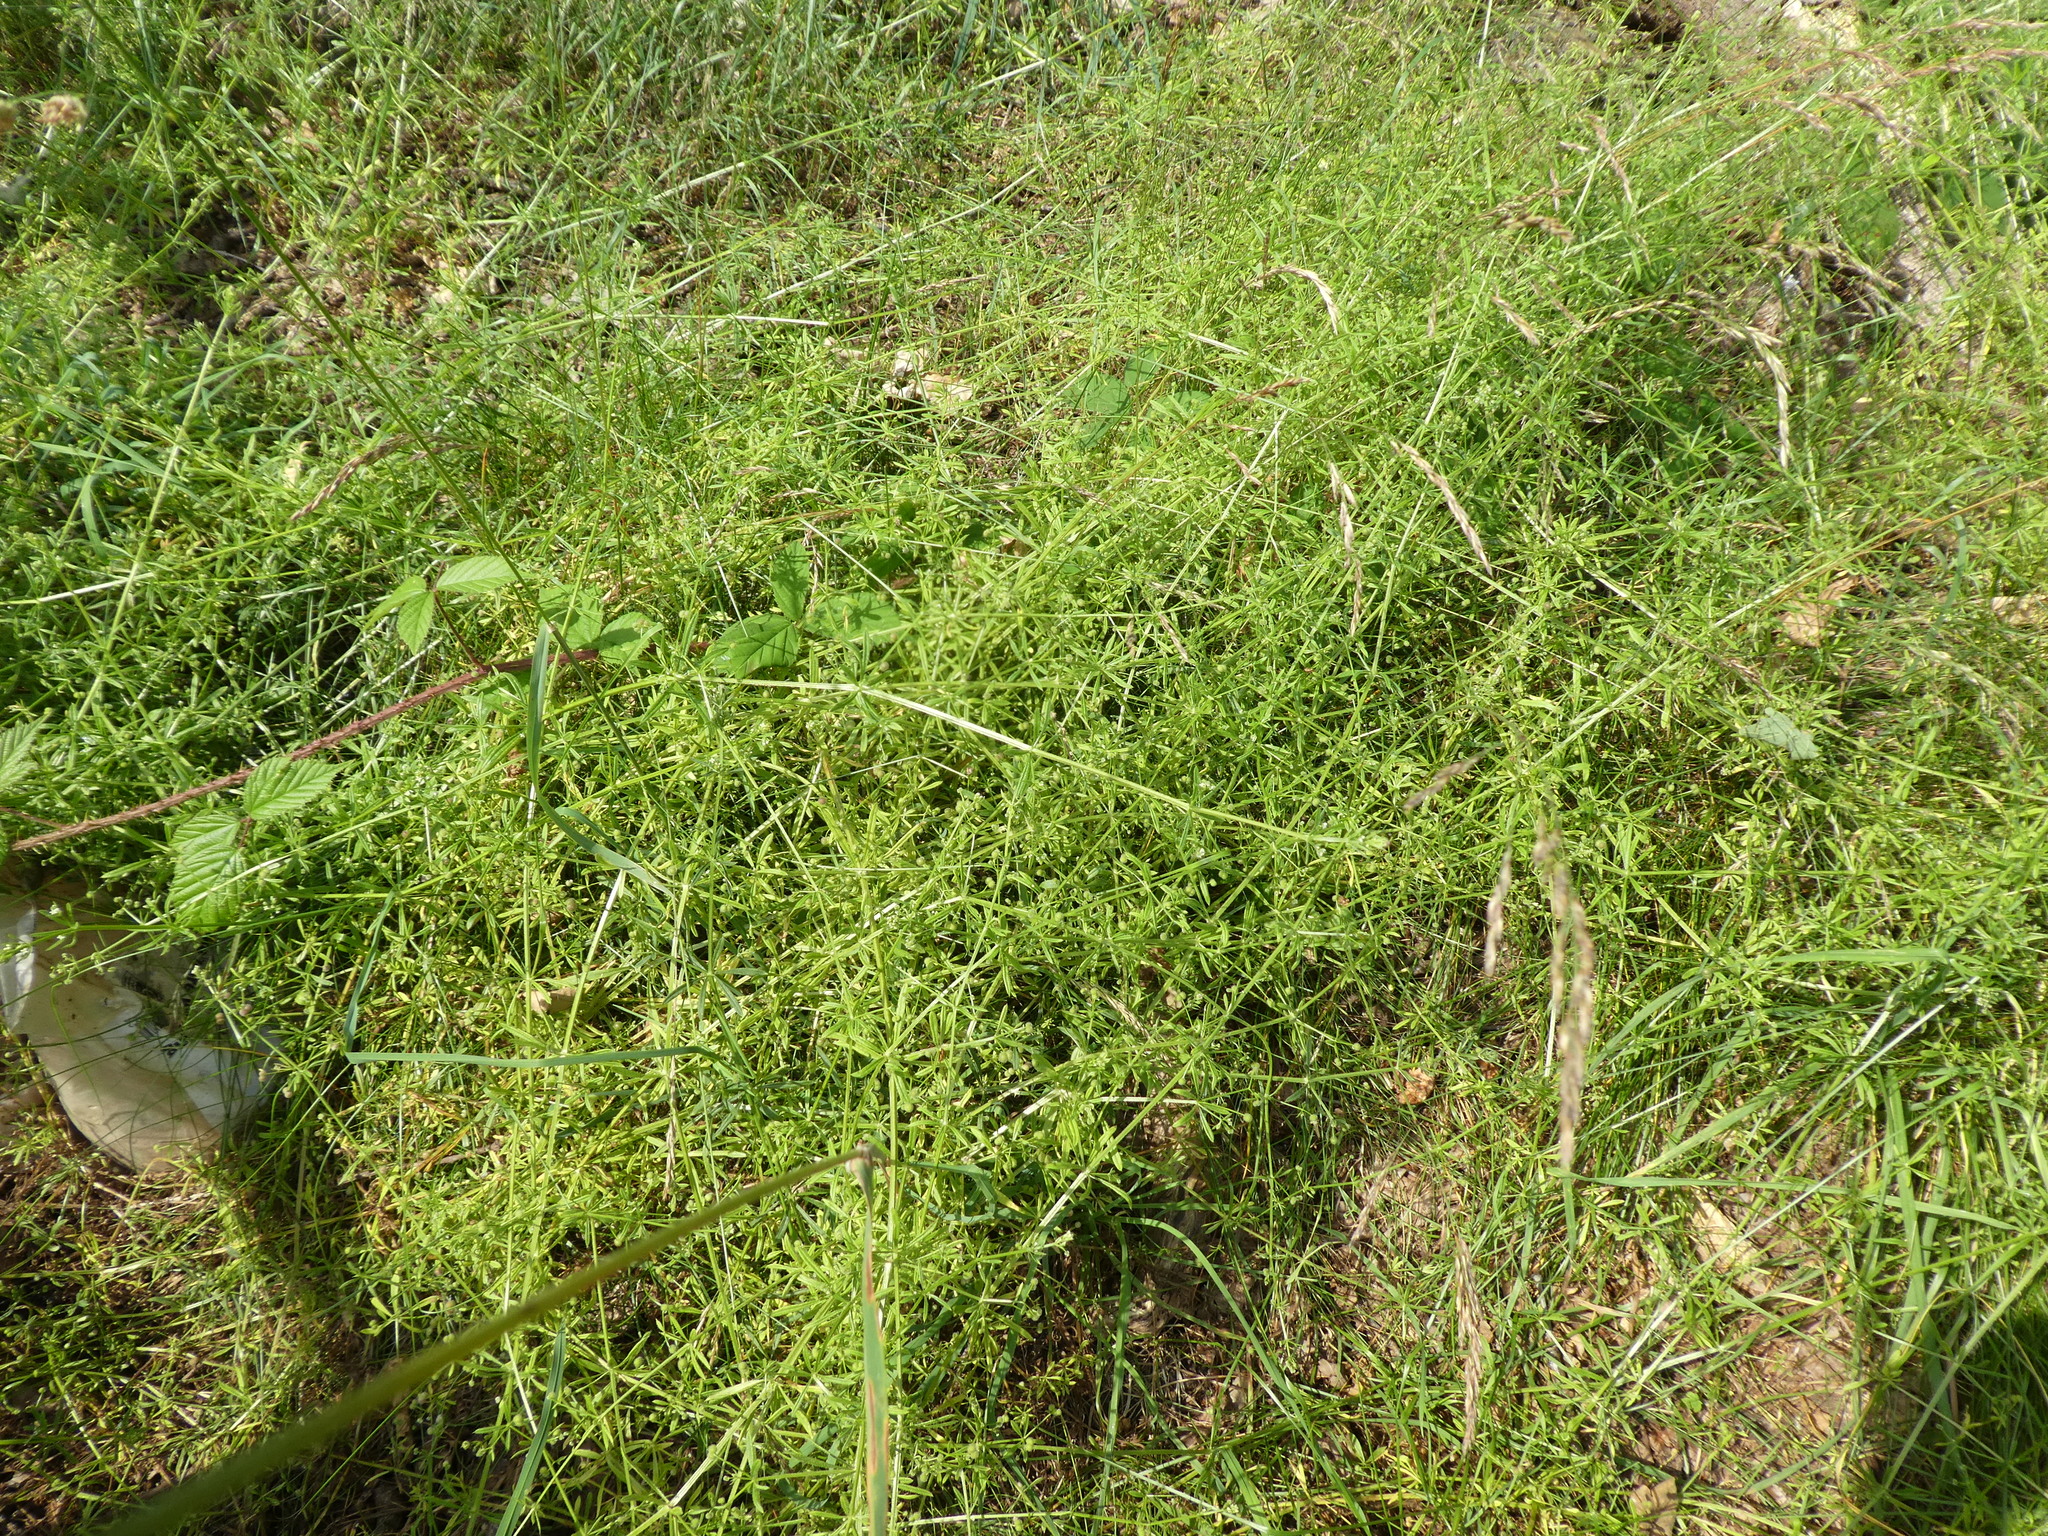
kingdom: Plantae
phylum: Tracheophyta
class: Magnoliopsida
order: Gentianales
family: Rubiaceae
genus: Galium
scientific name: Galium aparine
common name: Cleavers
